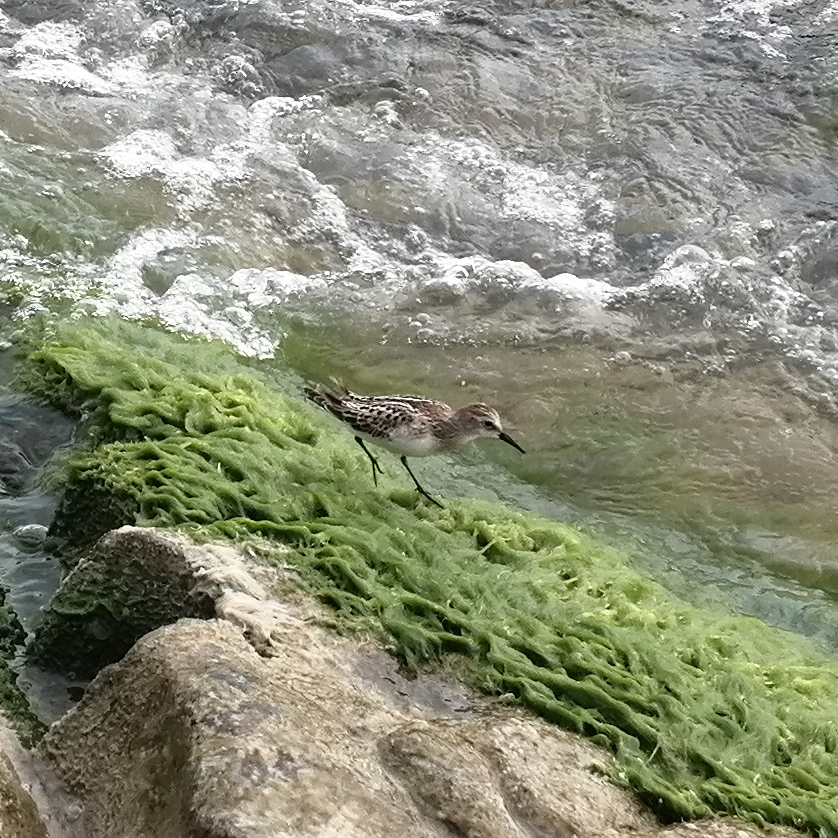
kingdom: Animalia
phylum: Chordata
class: Aves
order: Charadriiformes
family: Scolopacidae
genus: Calidris
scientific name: Calidris minuta
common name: Little stint
